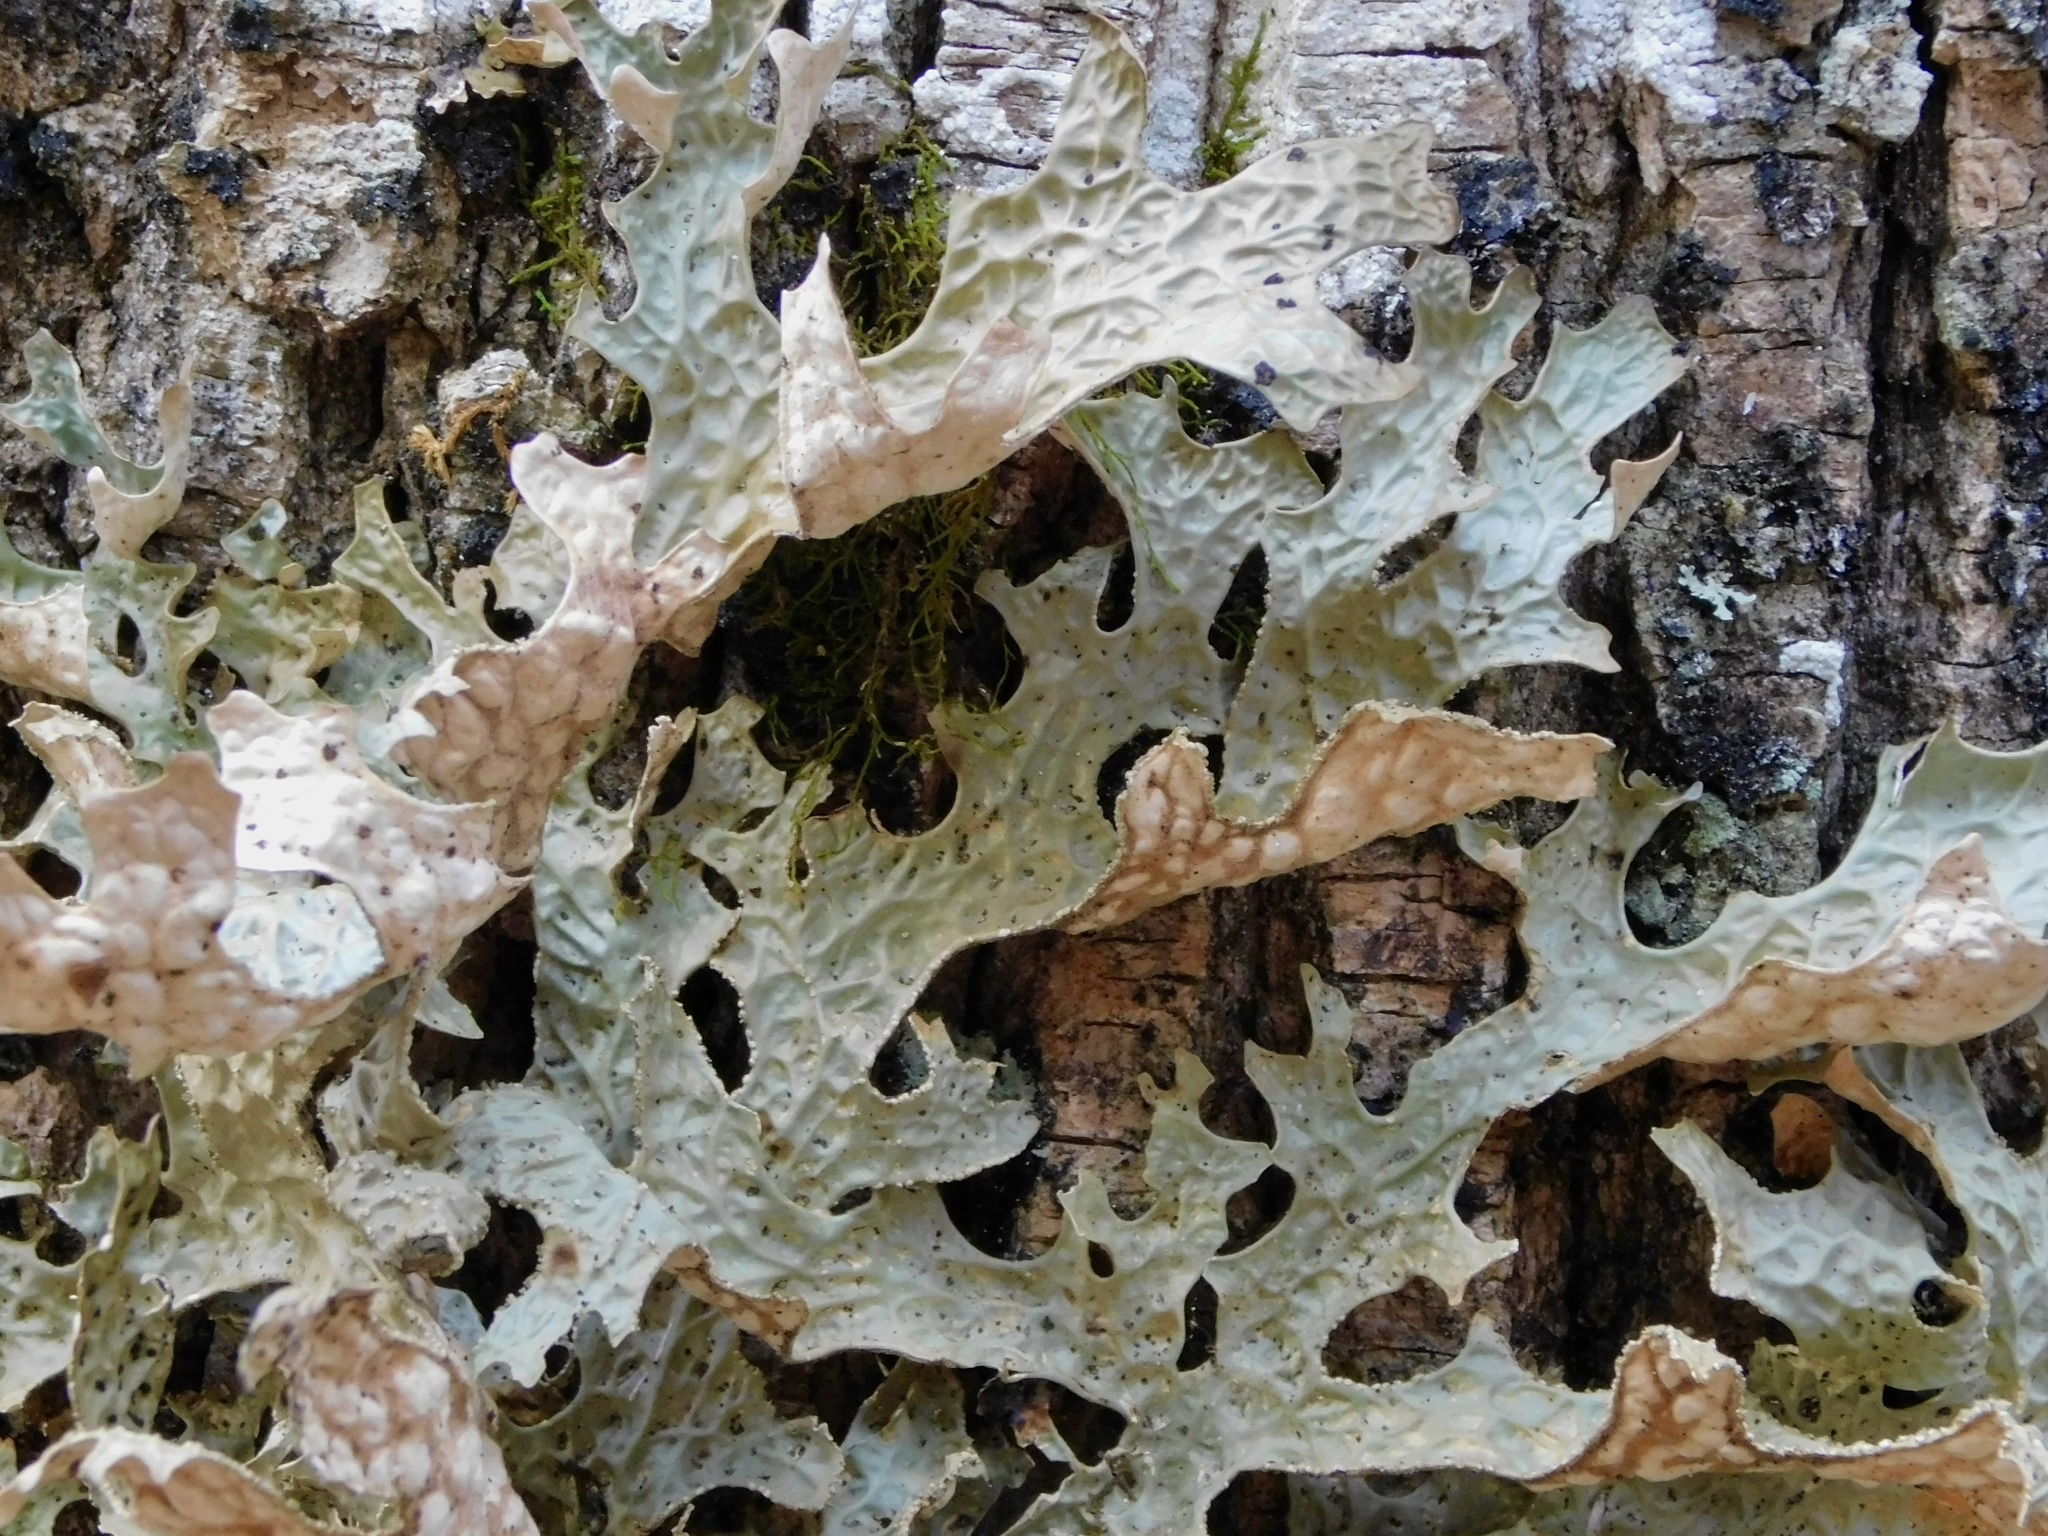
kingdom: Fungi
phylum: Ascomycota
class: Lecanoromycetes
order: Peltigerales
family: Lobariaceae
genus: Lobaria
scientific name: Lobaria pulmonaria
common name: Lungwort
